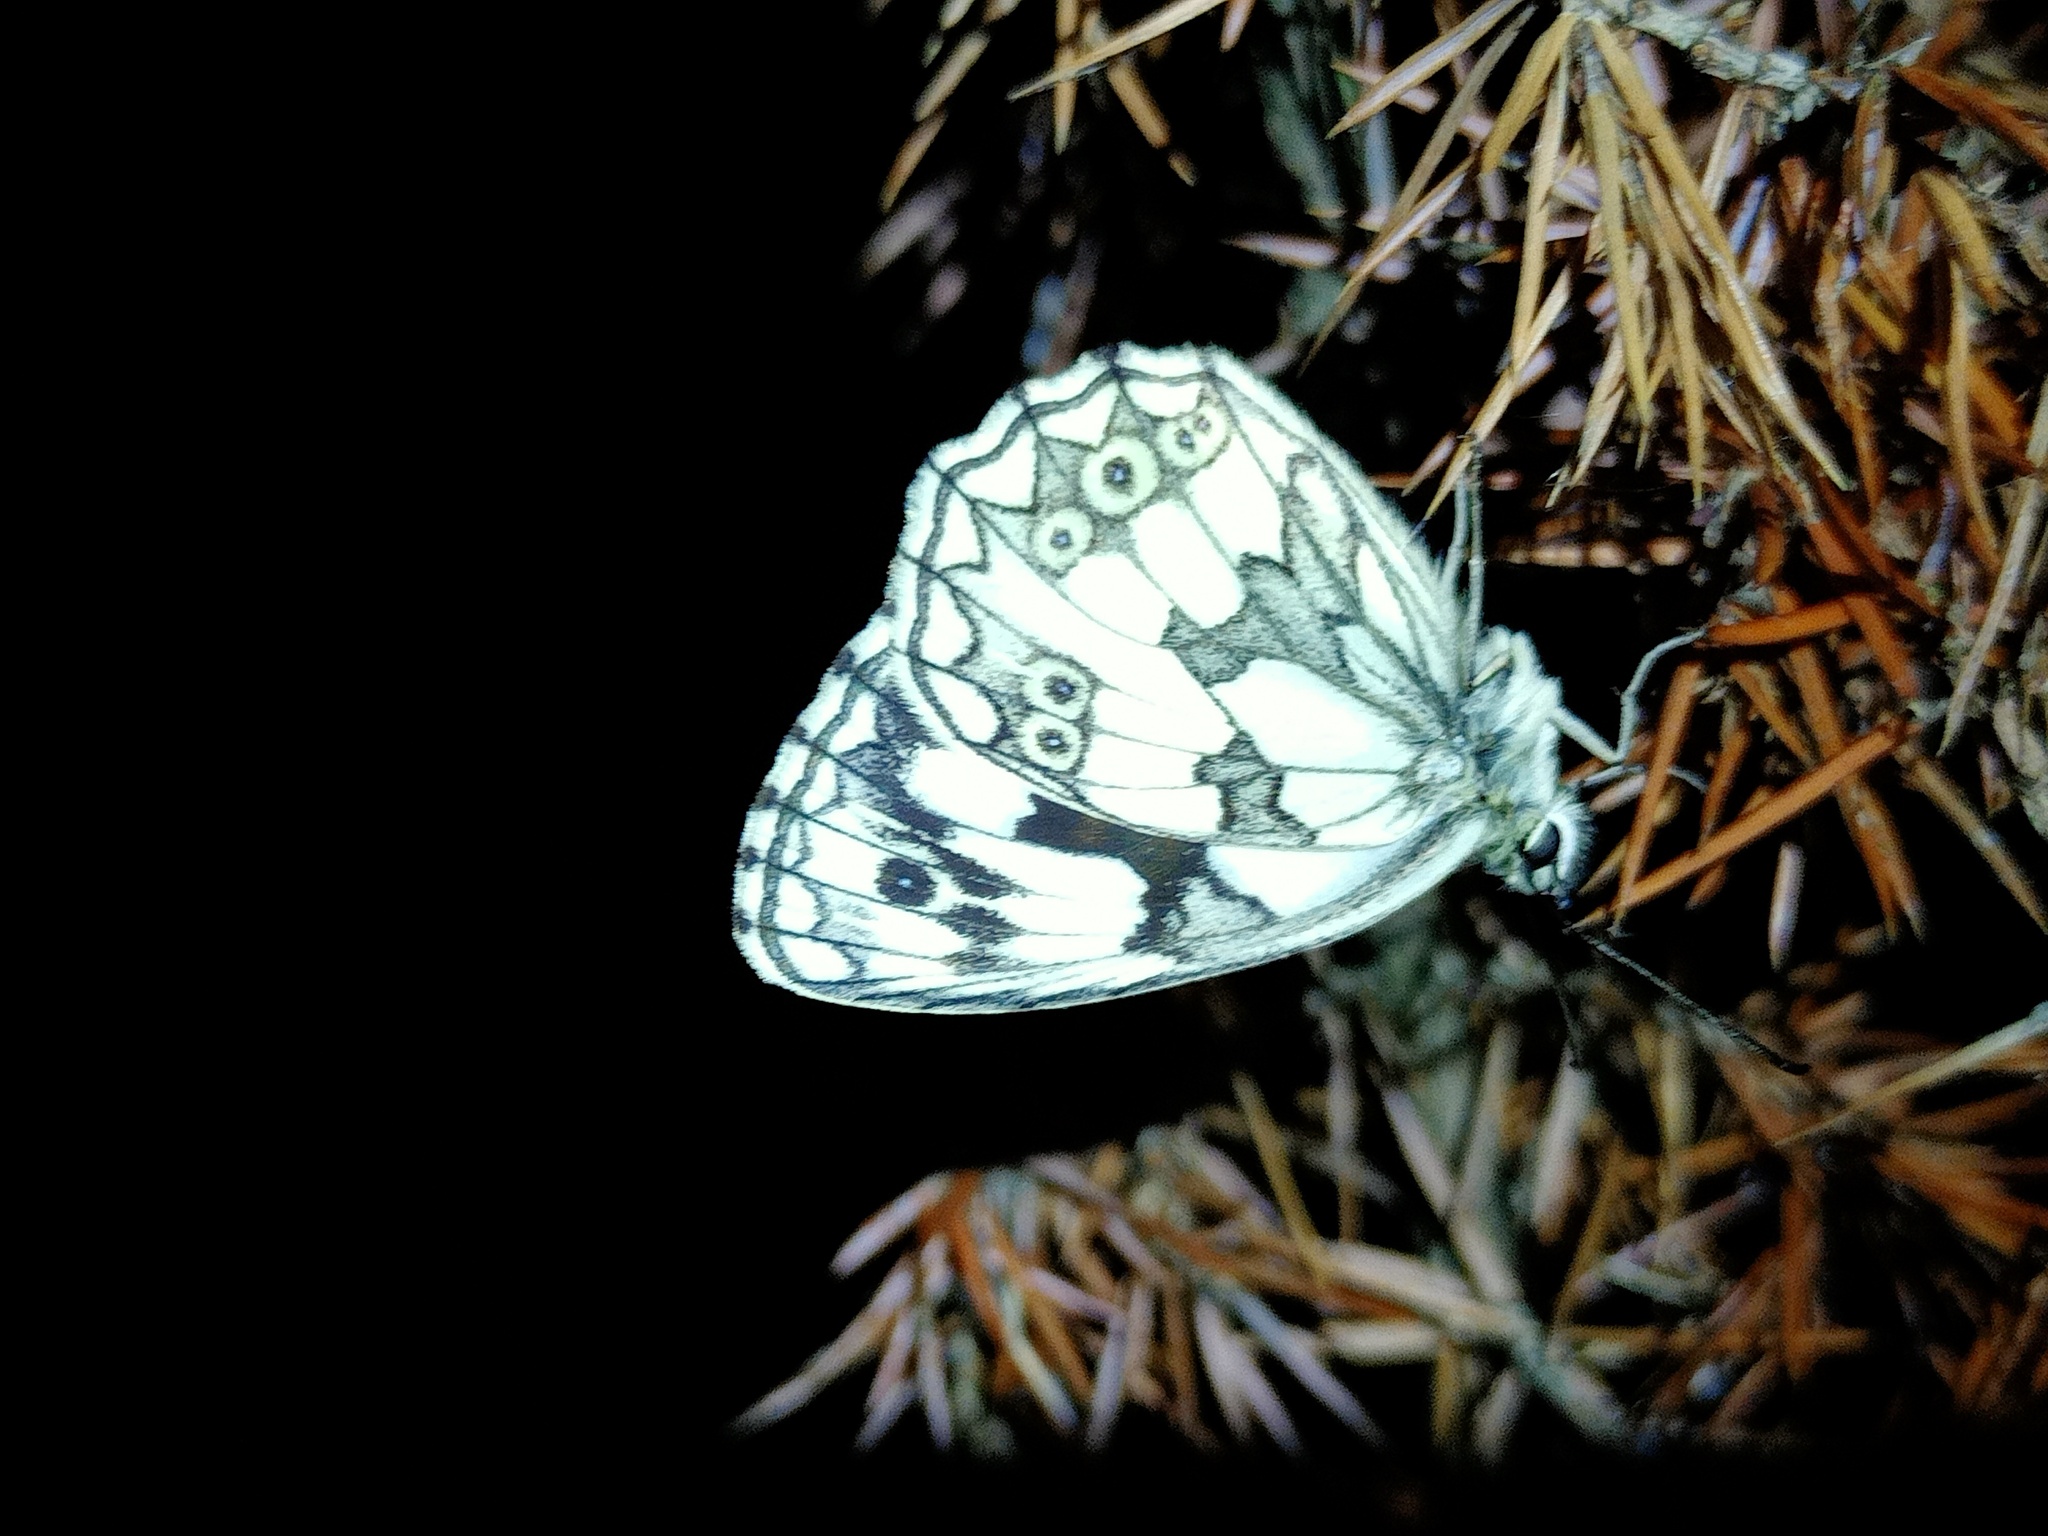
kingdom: Animalia
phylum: Arthropoda
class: Insecta
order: Lepidoptera
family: Nymphalidae
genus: Melanargia
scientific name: Melanargia galathea
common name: Marbled white
